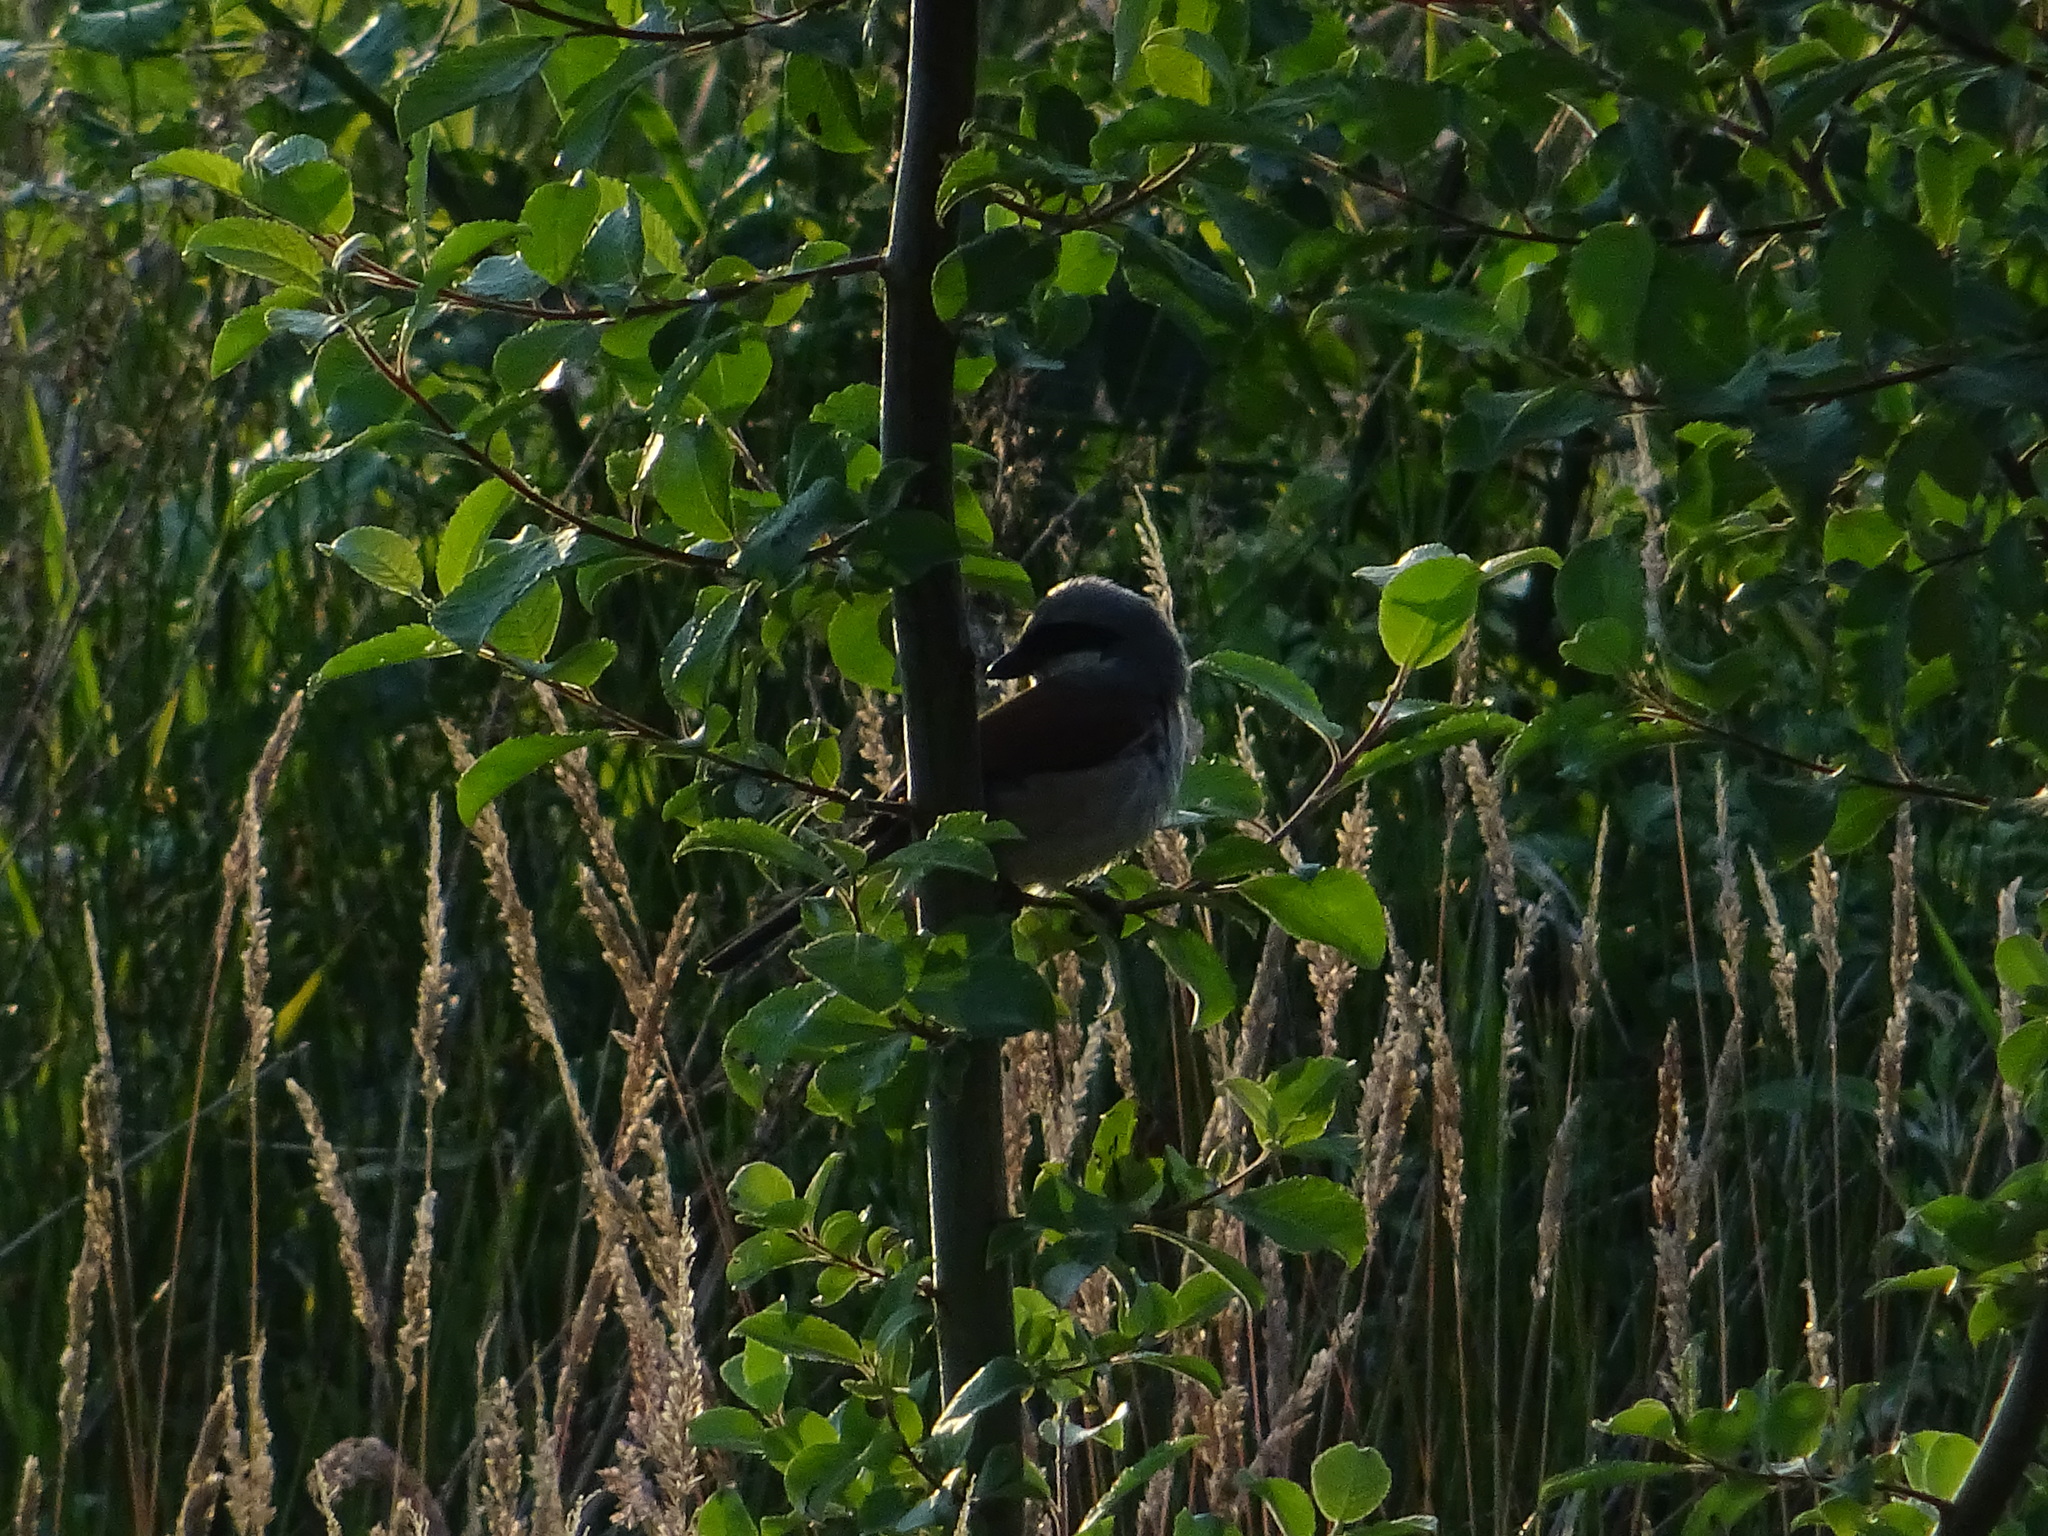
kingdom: Animalia
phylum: Chordata
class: Aves
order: Passeriformes
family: Laniidae
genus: Lanius
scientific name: Lanius collurio
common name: Red-backed shrike
